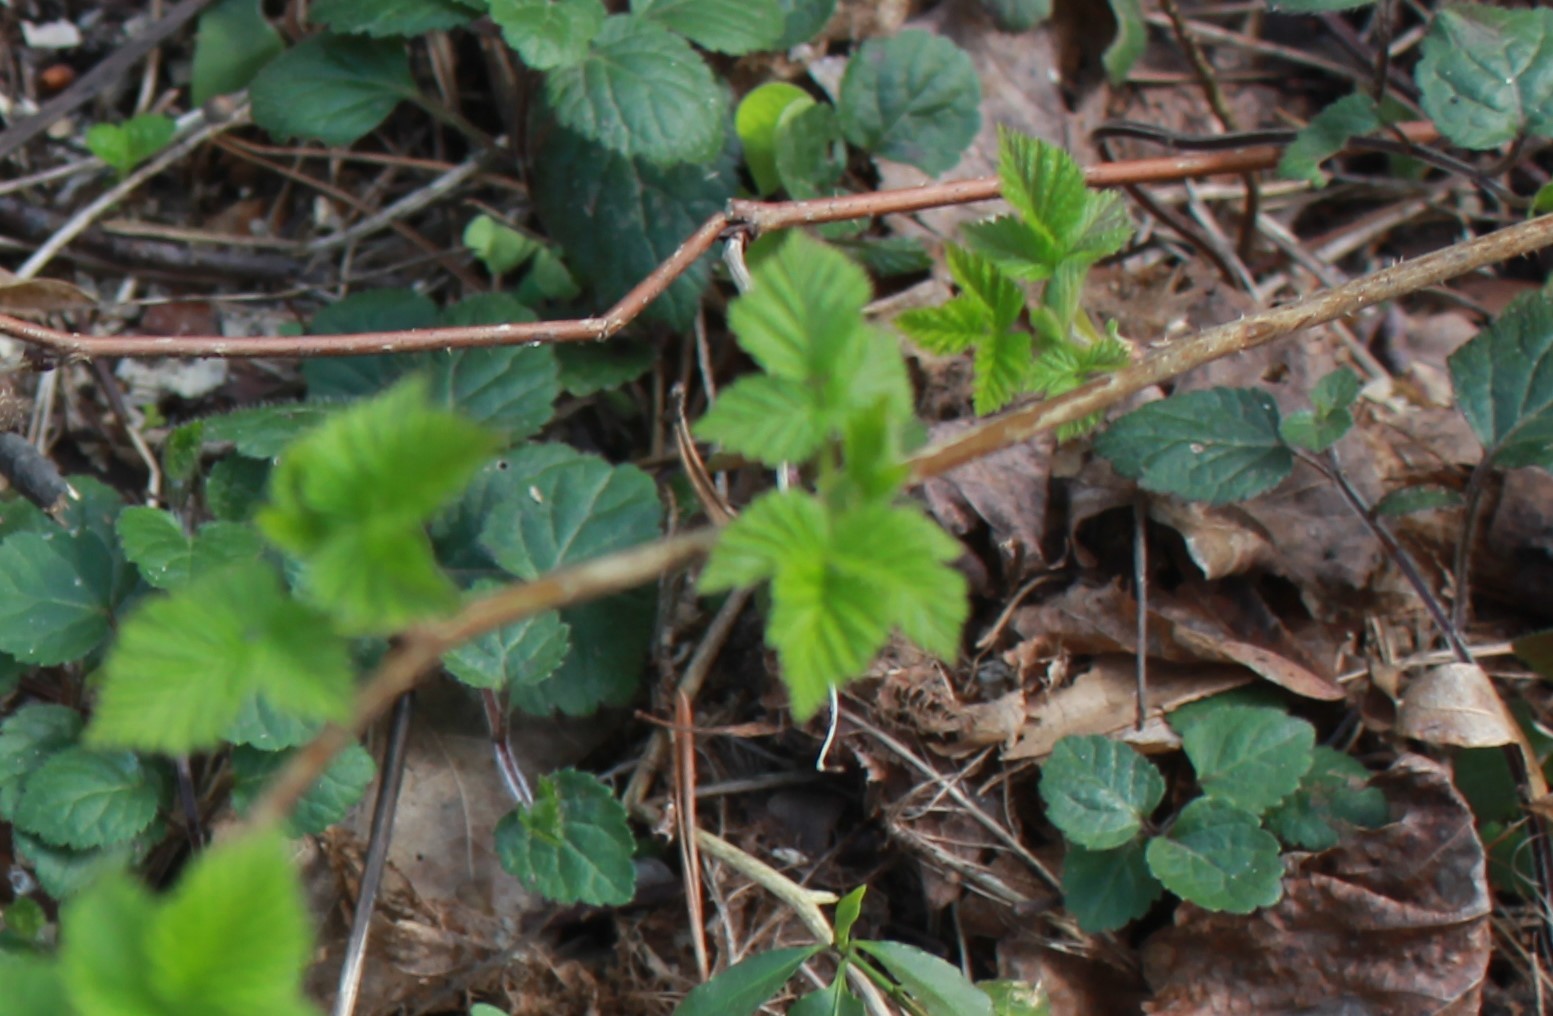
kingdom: Plantae
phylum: Tracheophyta
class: Magnoliopsida
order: Rosales
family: Rosaceae
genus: Rubus
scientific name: Rubus idaeus
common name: Raspberry
